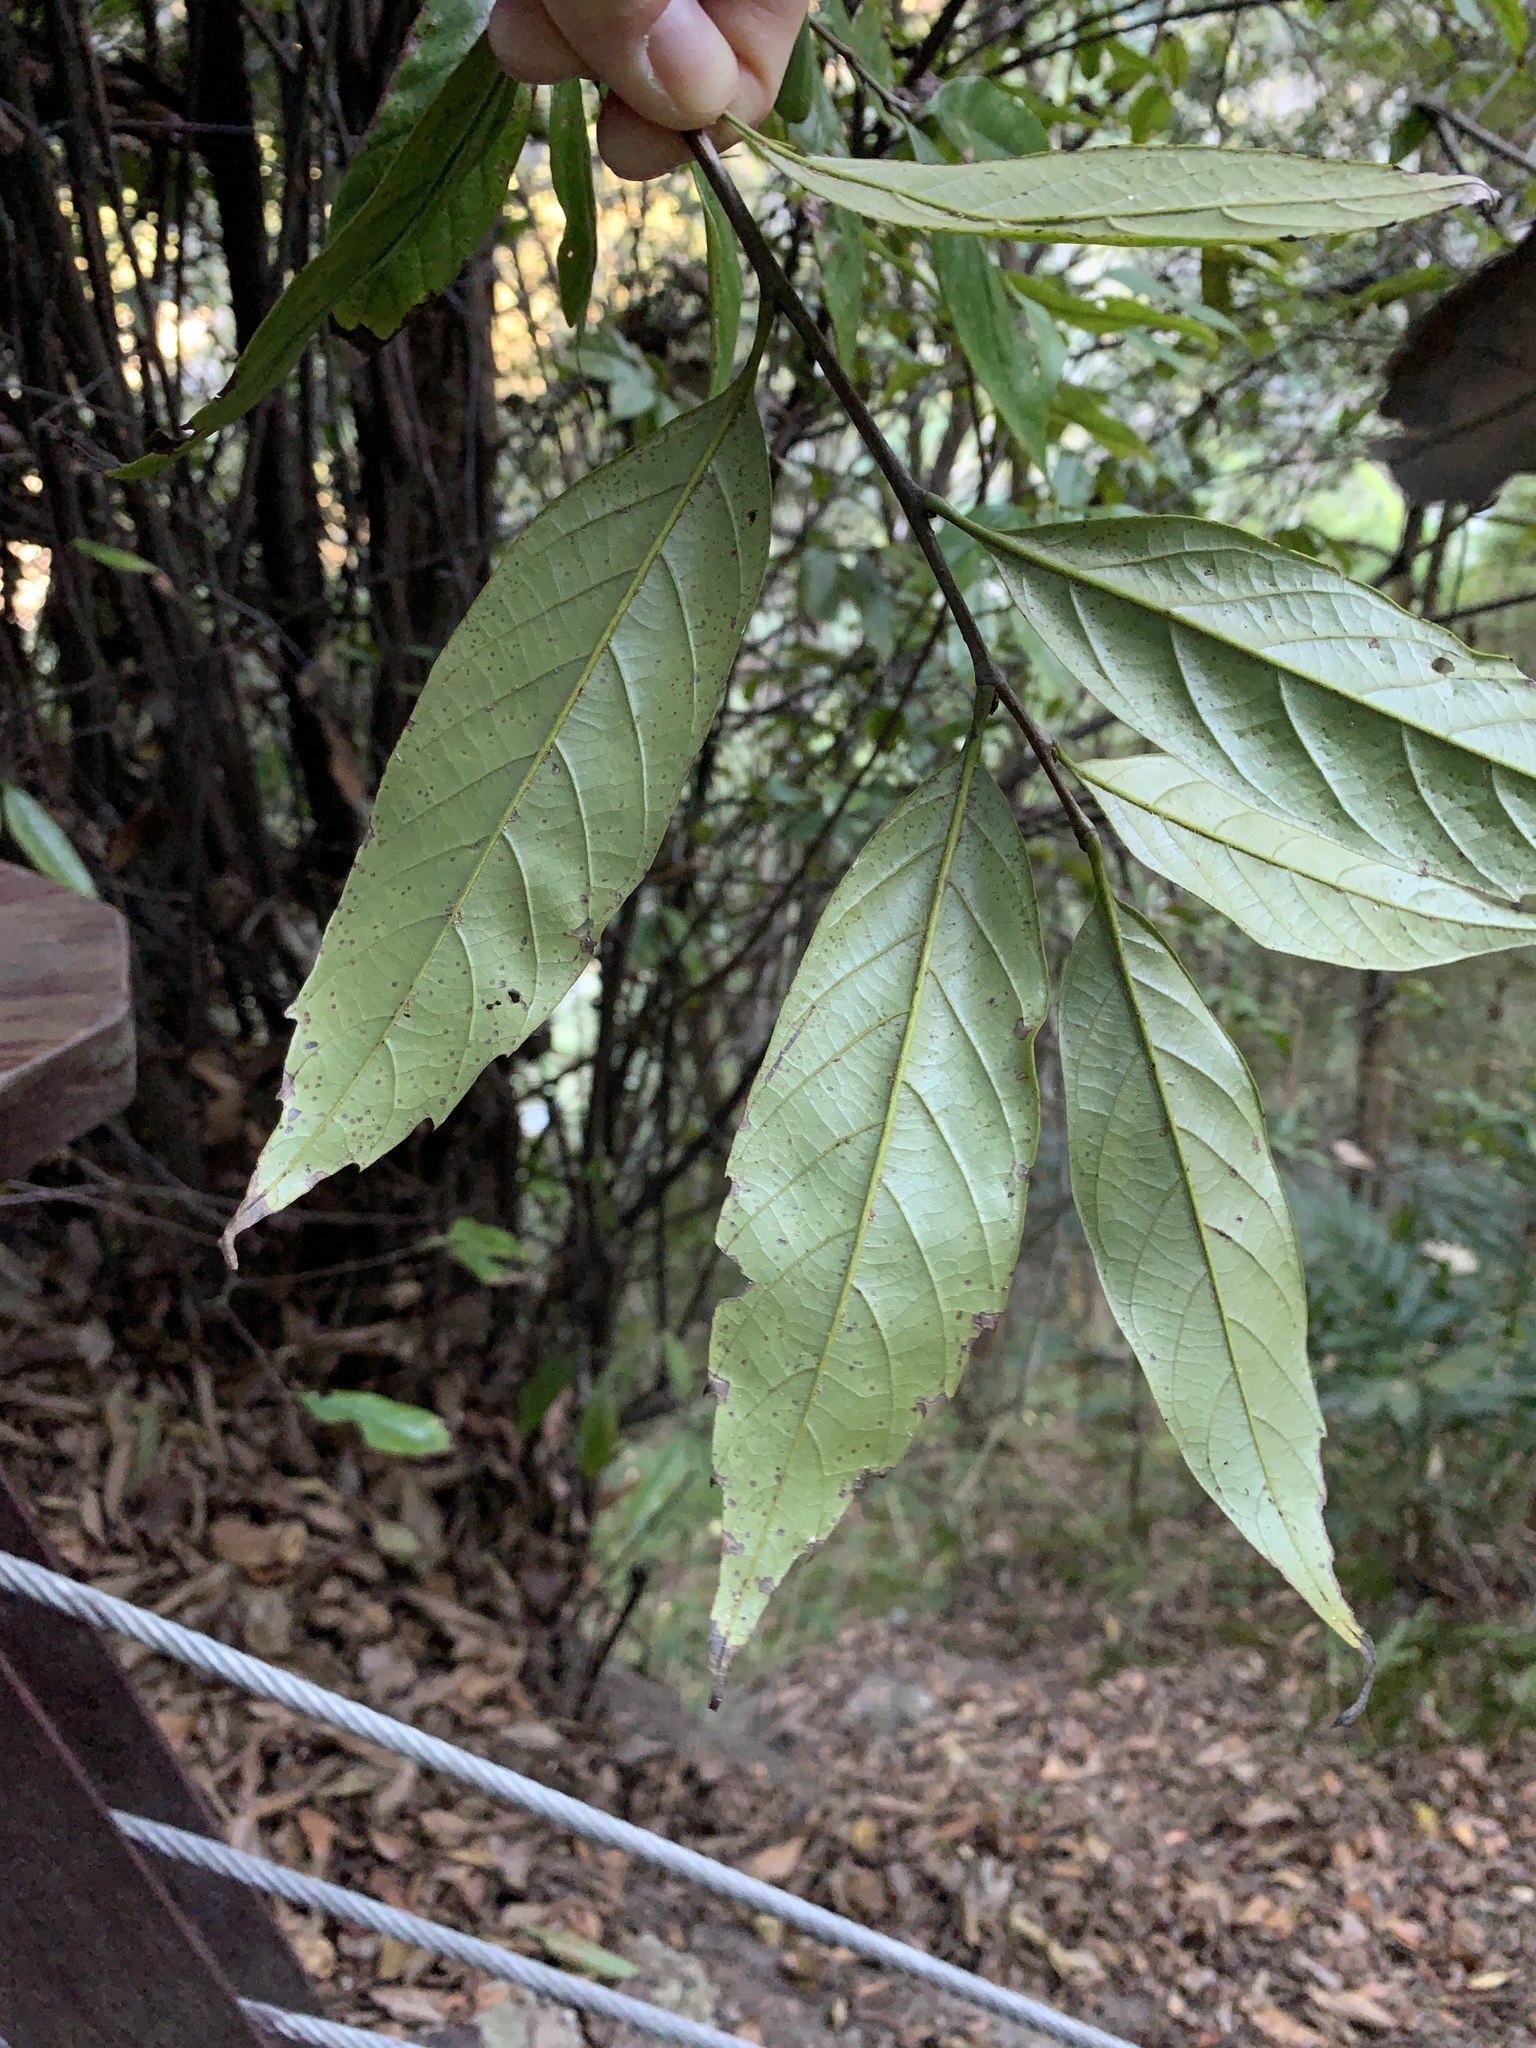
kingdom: Plantae
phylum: Tracheophyta
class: Magnoliopsida
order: Fagales
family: Fagaceae
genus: Castanopsis
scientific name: Castanopsis kawakamii
